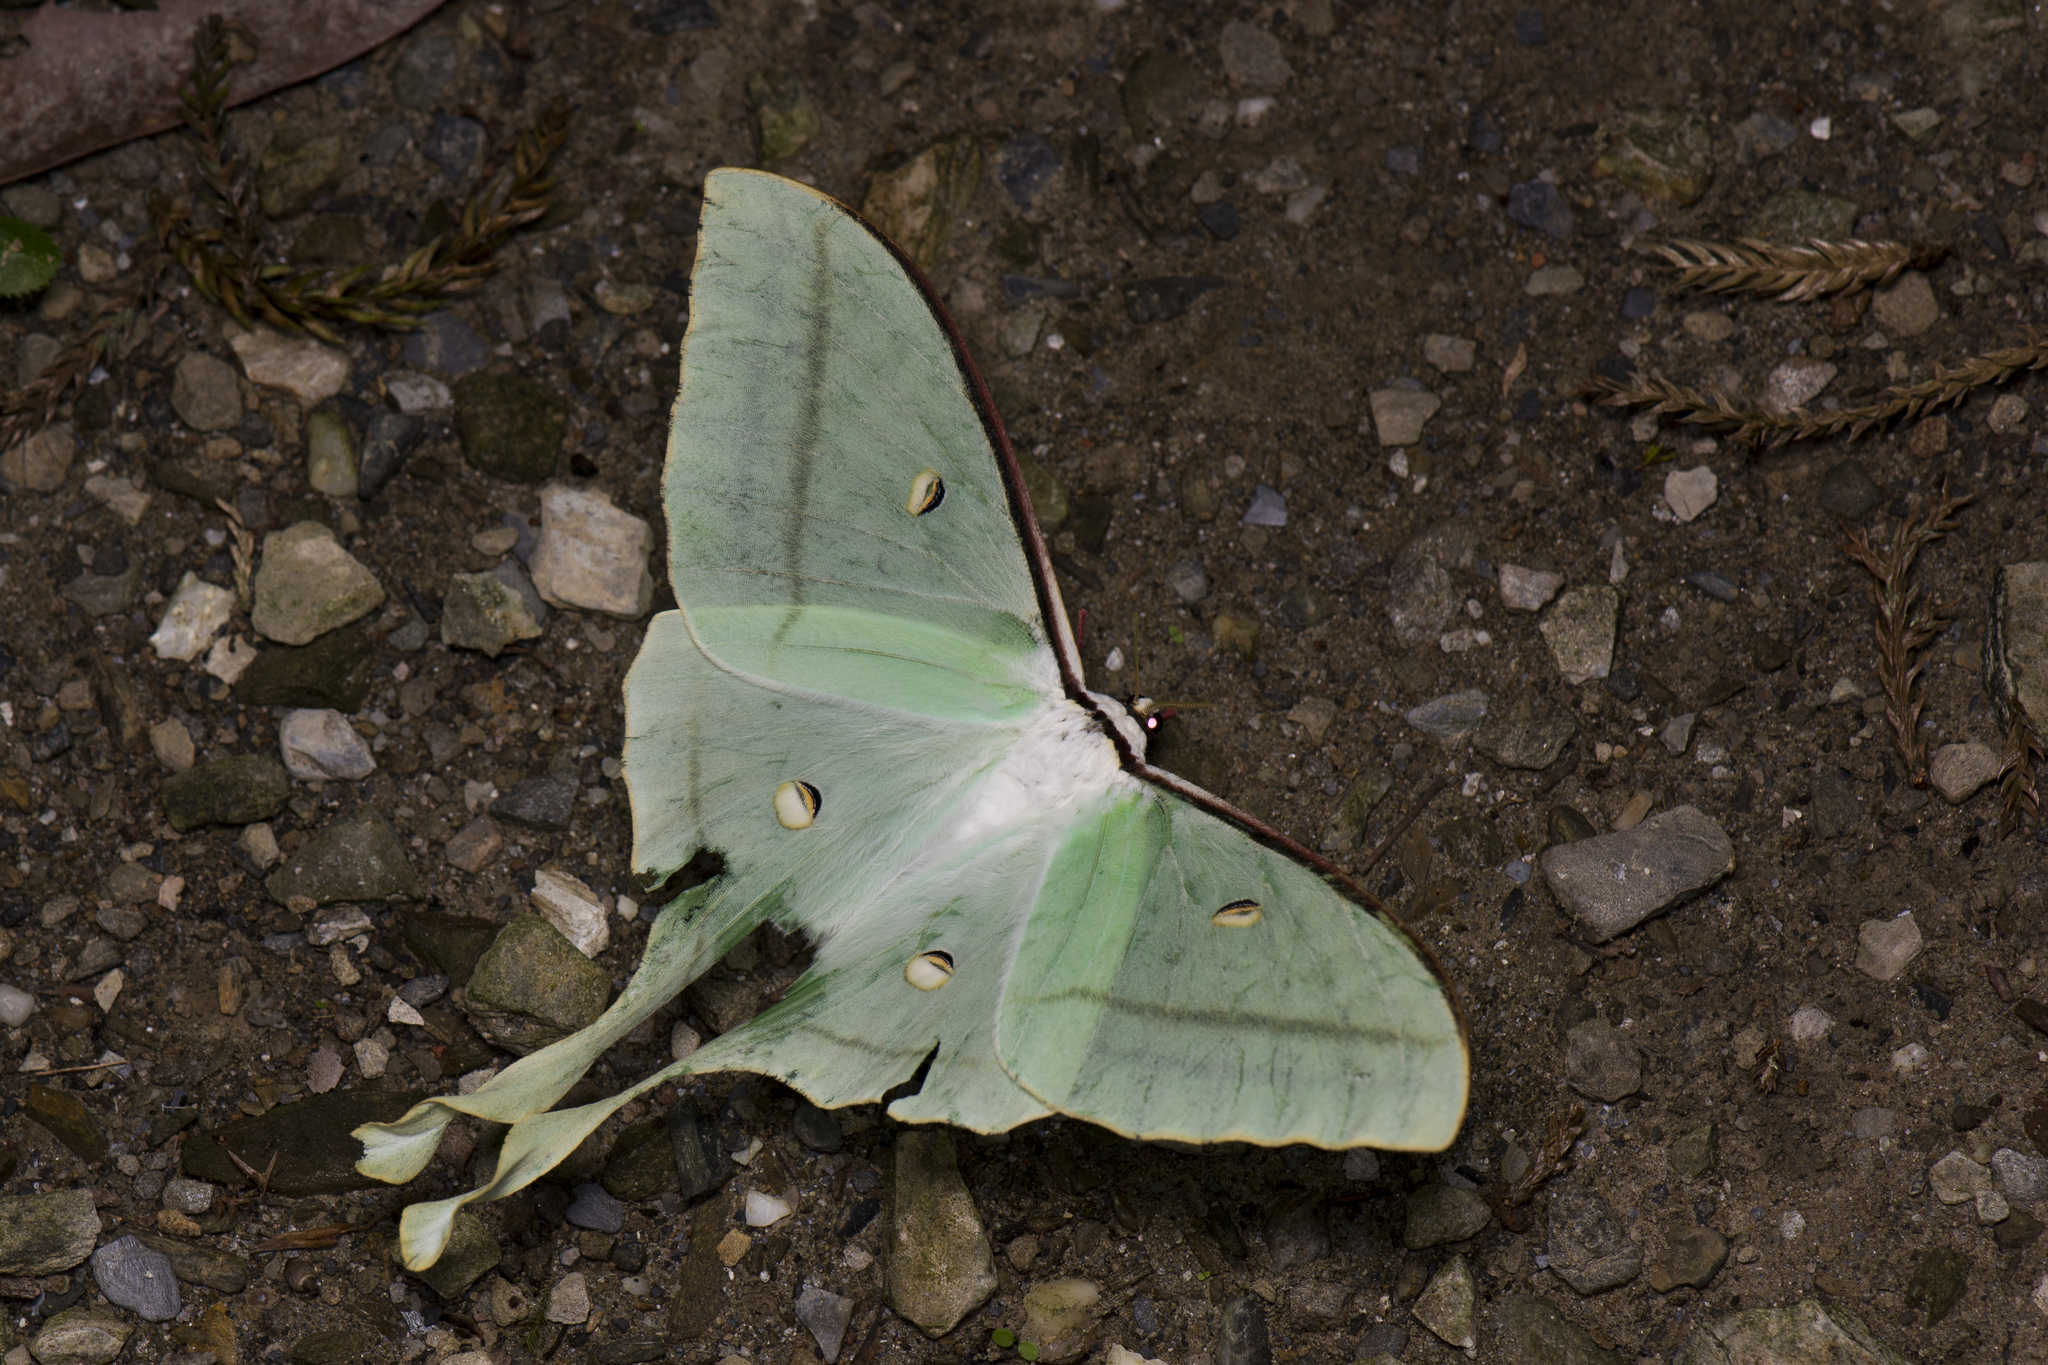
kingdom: Animalia
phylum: Arthropoda
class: Insecta
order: Lepidoptera
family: Saturniidae
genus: Actias
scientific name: Actias ningpoana
